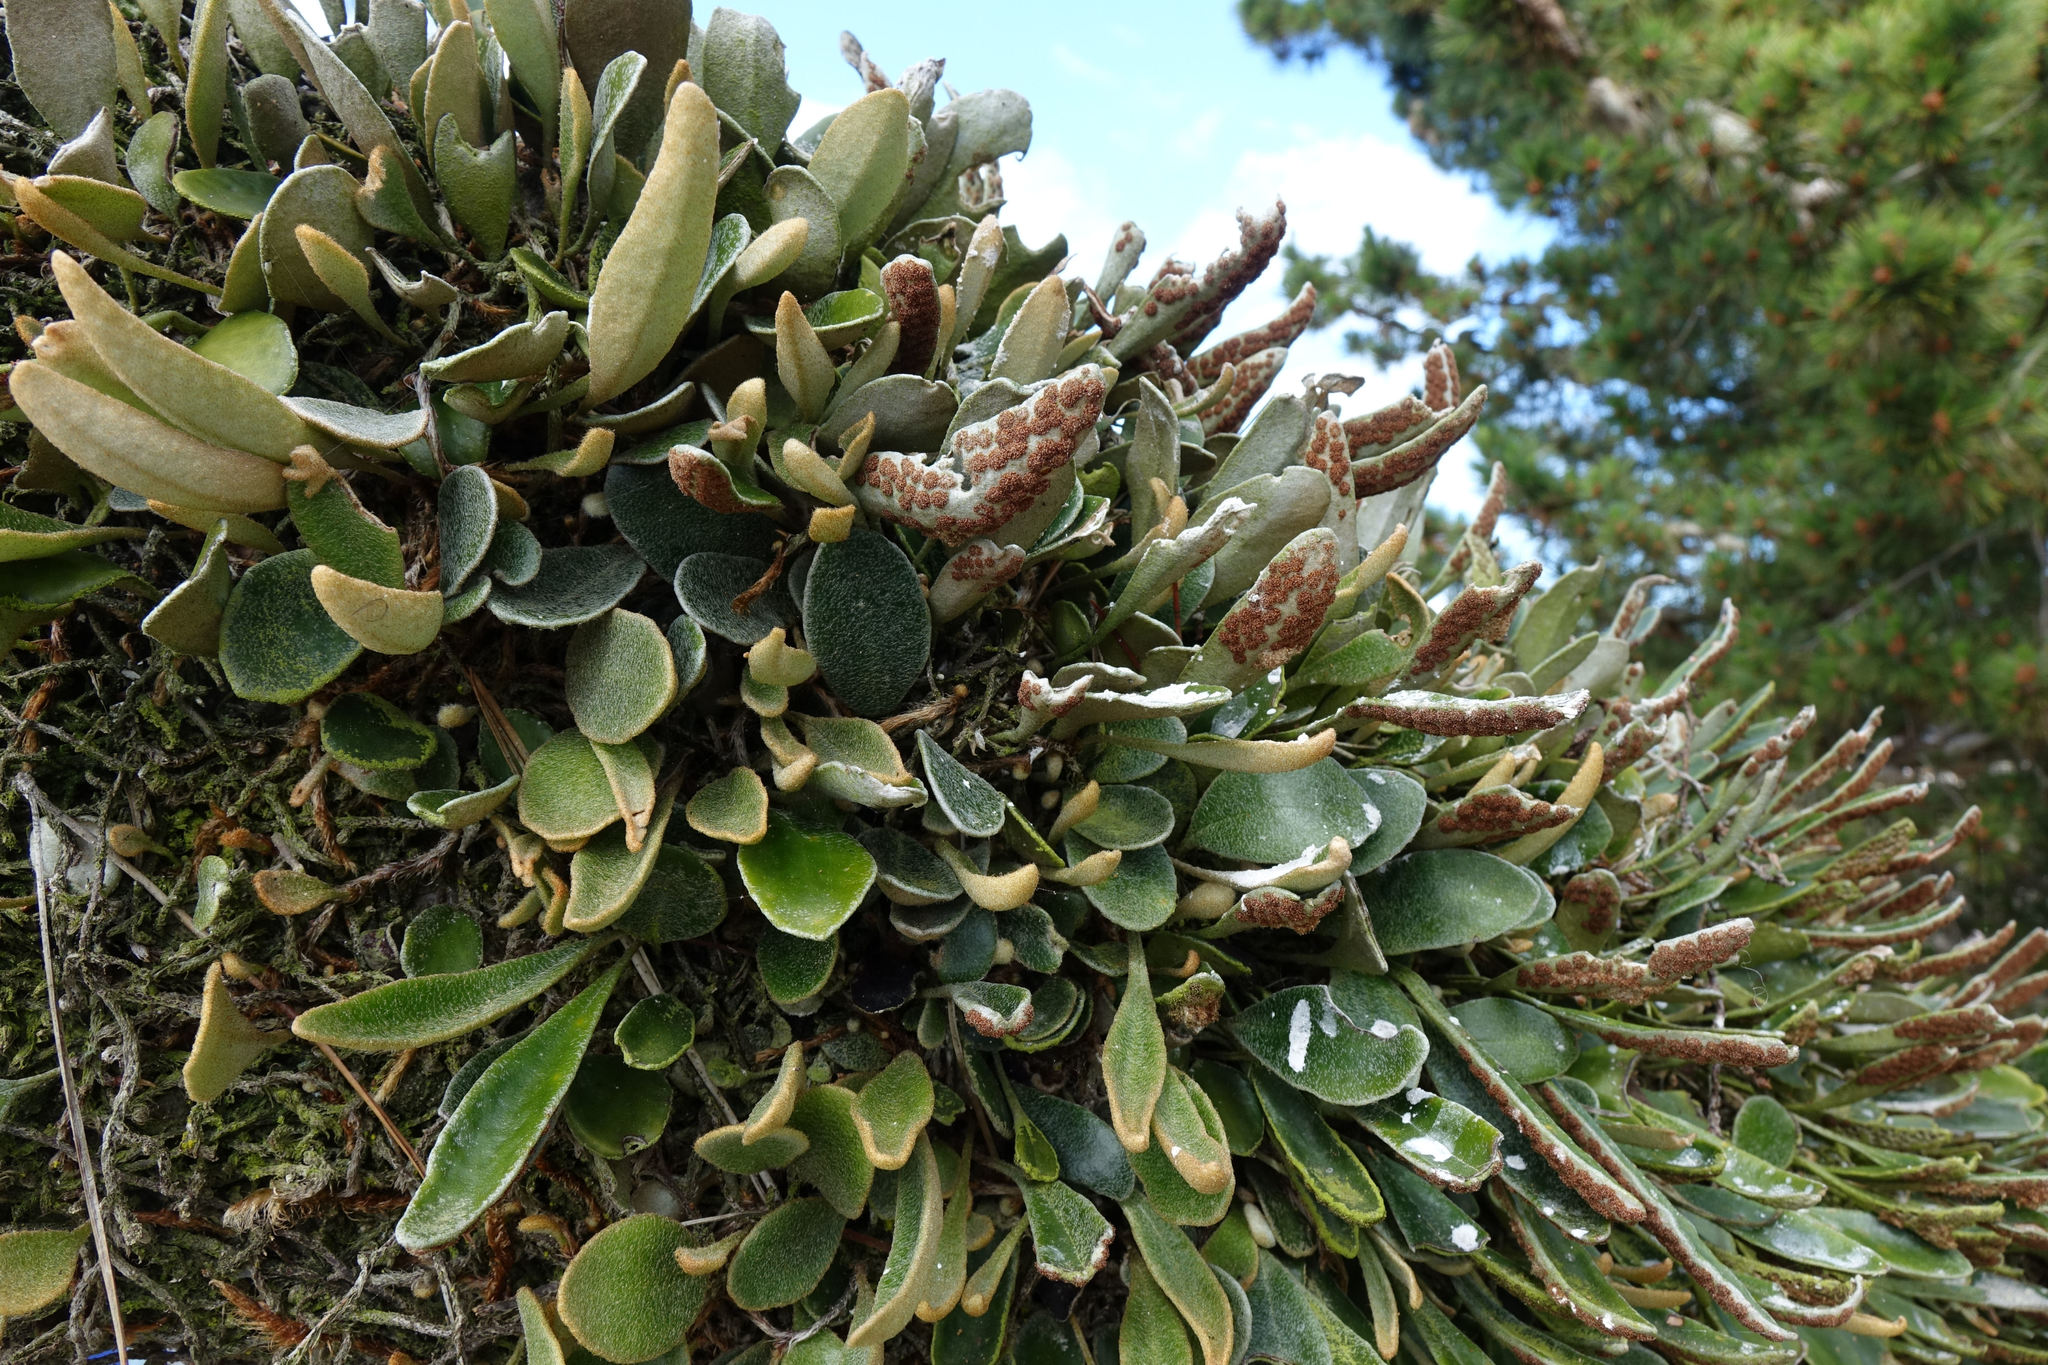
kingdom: Plantae
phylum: Tracheophyta
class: Polypodiopsida
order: Polypodiales
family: Polypodiaceae
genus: Pyrrosia
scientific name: Pyrrosia eleagnifolia
